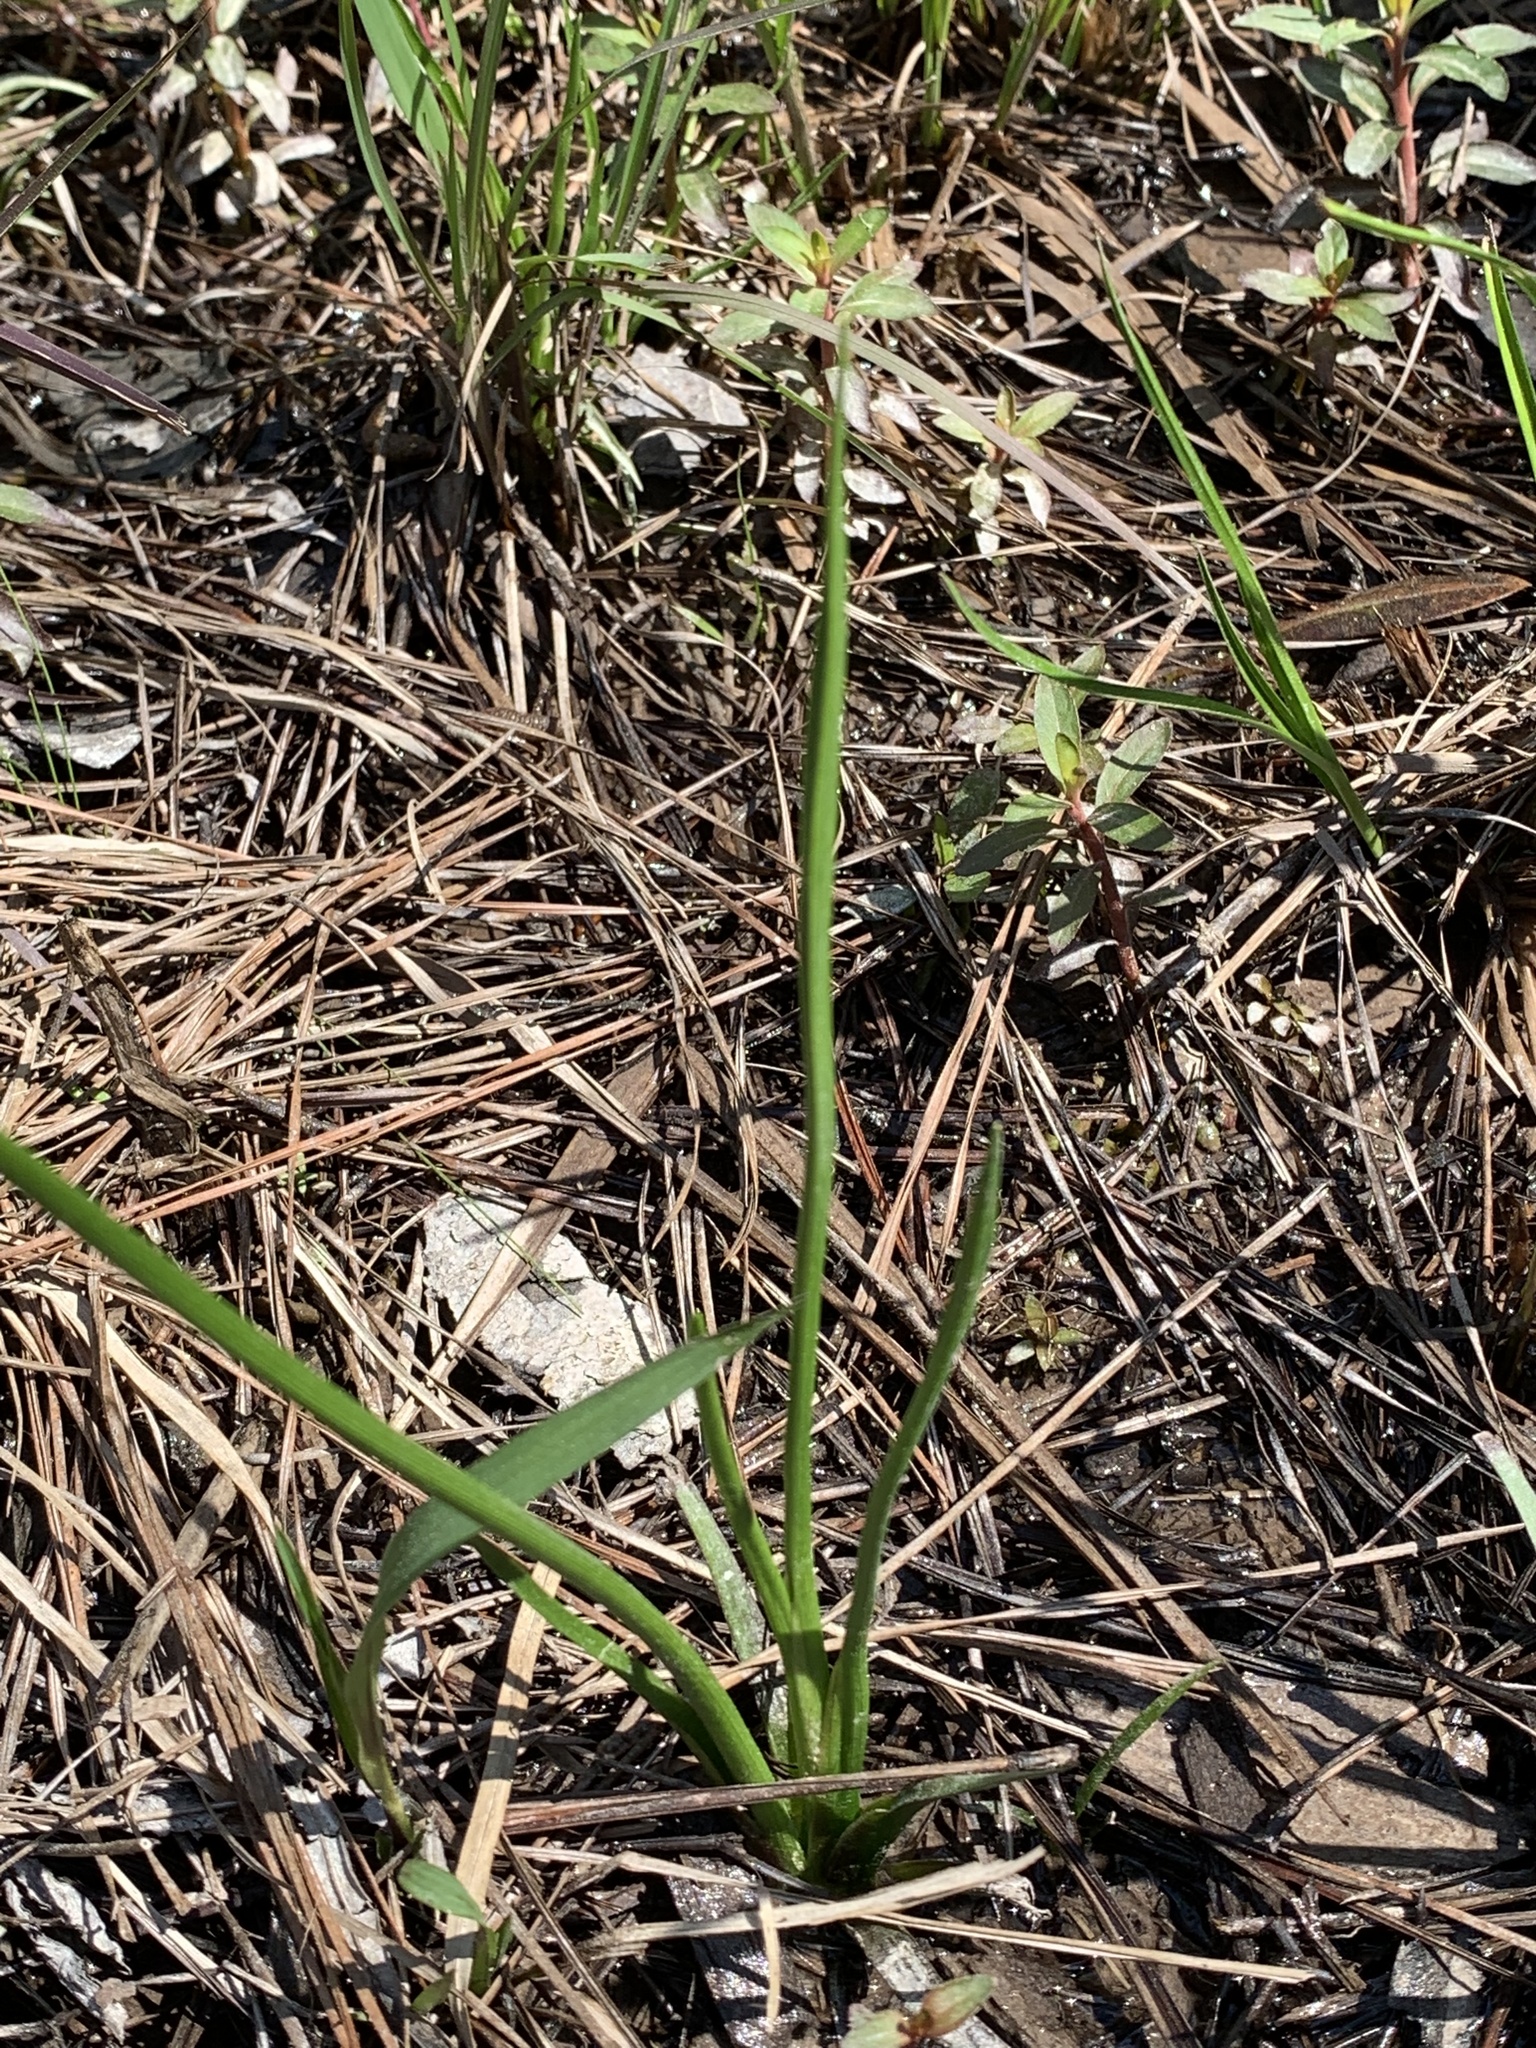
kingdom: Plantae
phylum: Tracheophyta
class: Liliopsida
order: Asparagales
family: Asparagaceae
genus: Schoenolirion
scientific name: Schoenolirion croceum
